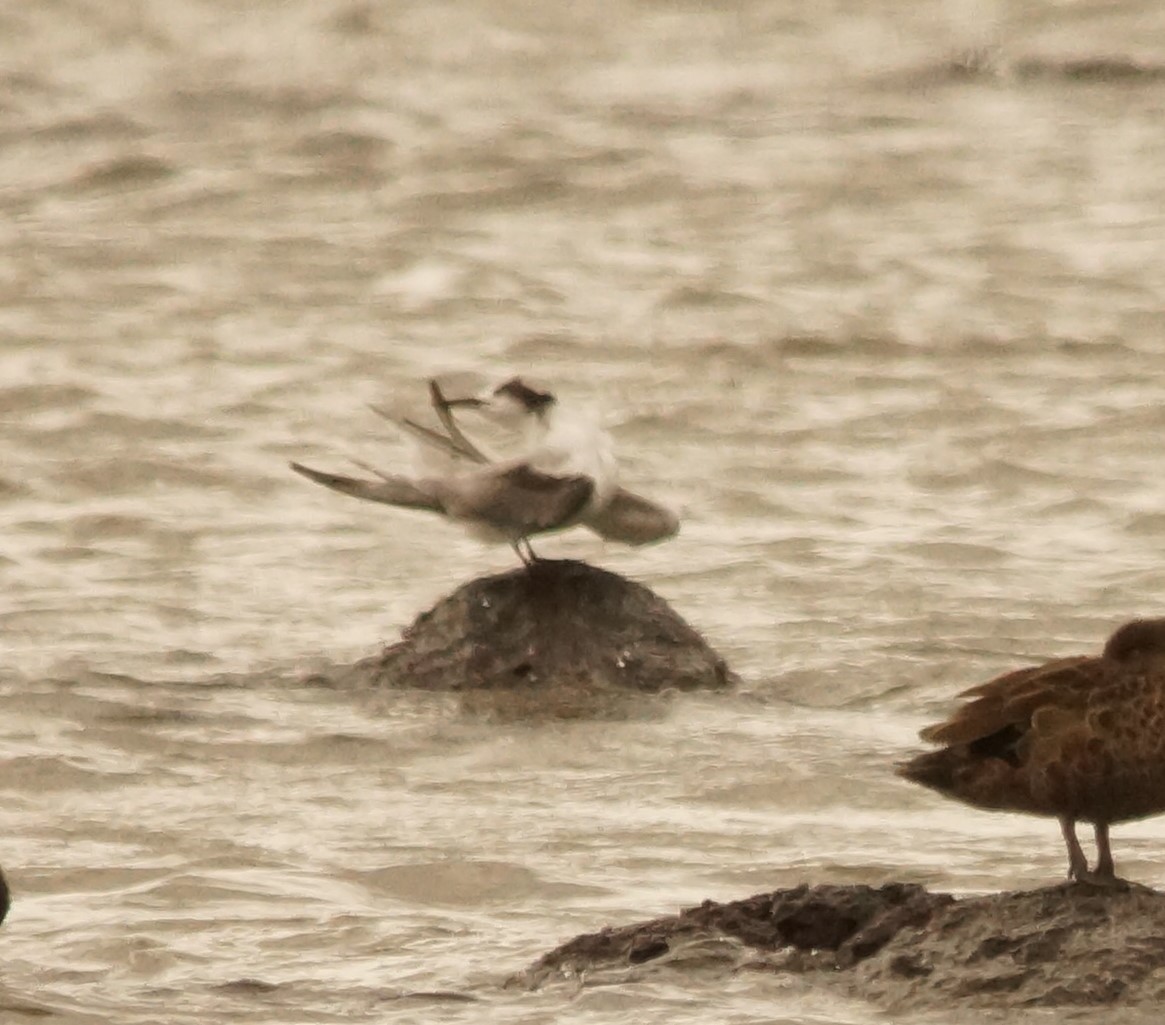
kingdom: Animalia
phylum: Chordata
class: Aves
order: Charadriiformes
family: Laridae
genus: Sterna
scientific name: Sterna hirundo
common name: Common tern
